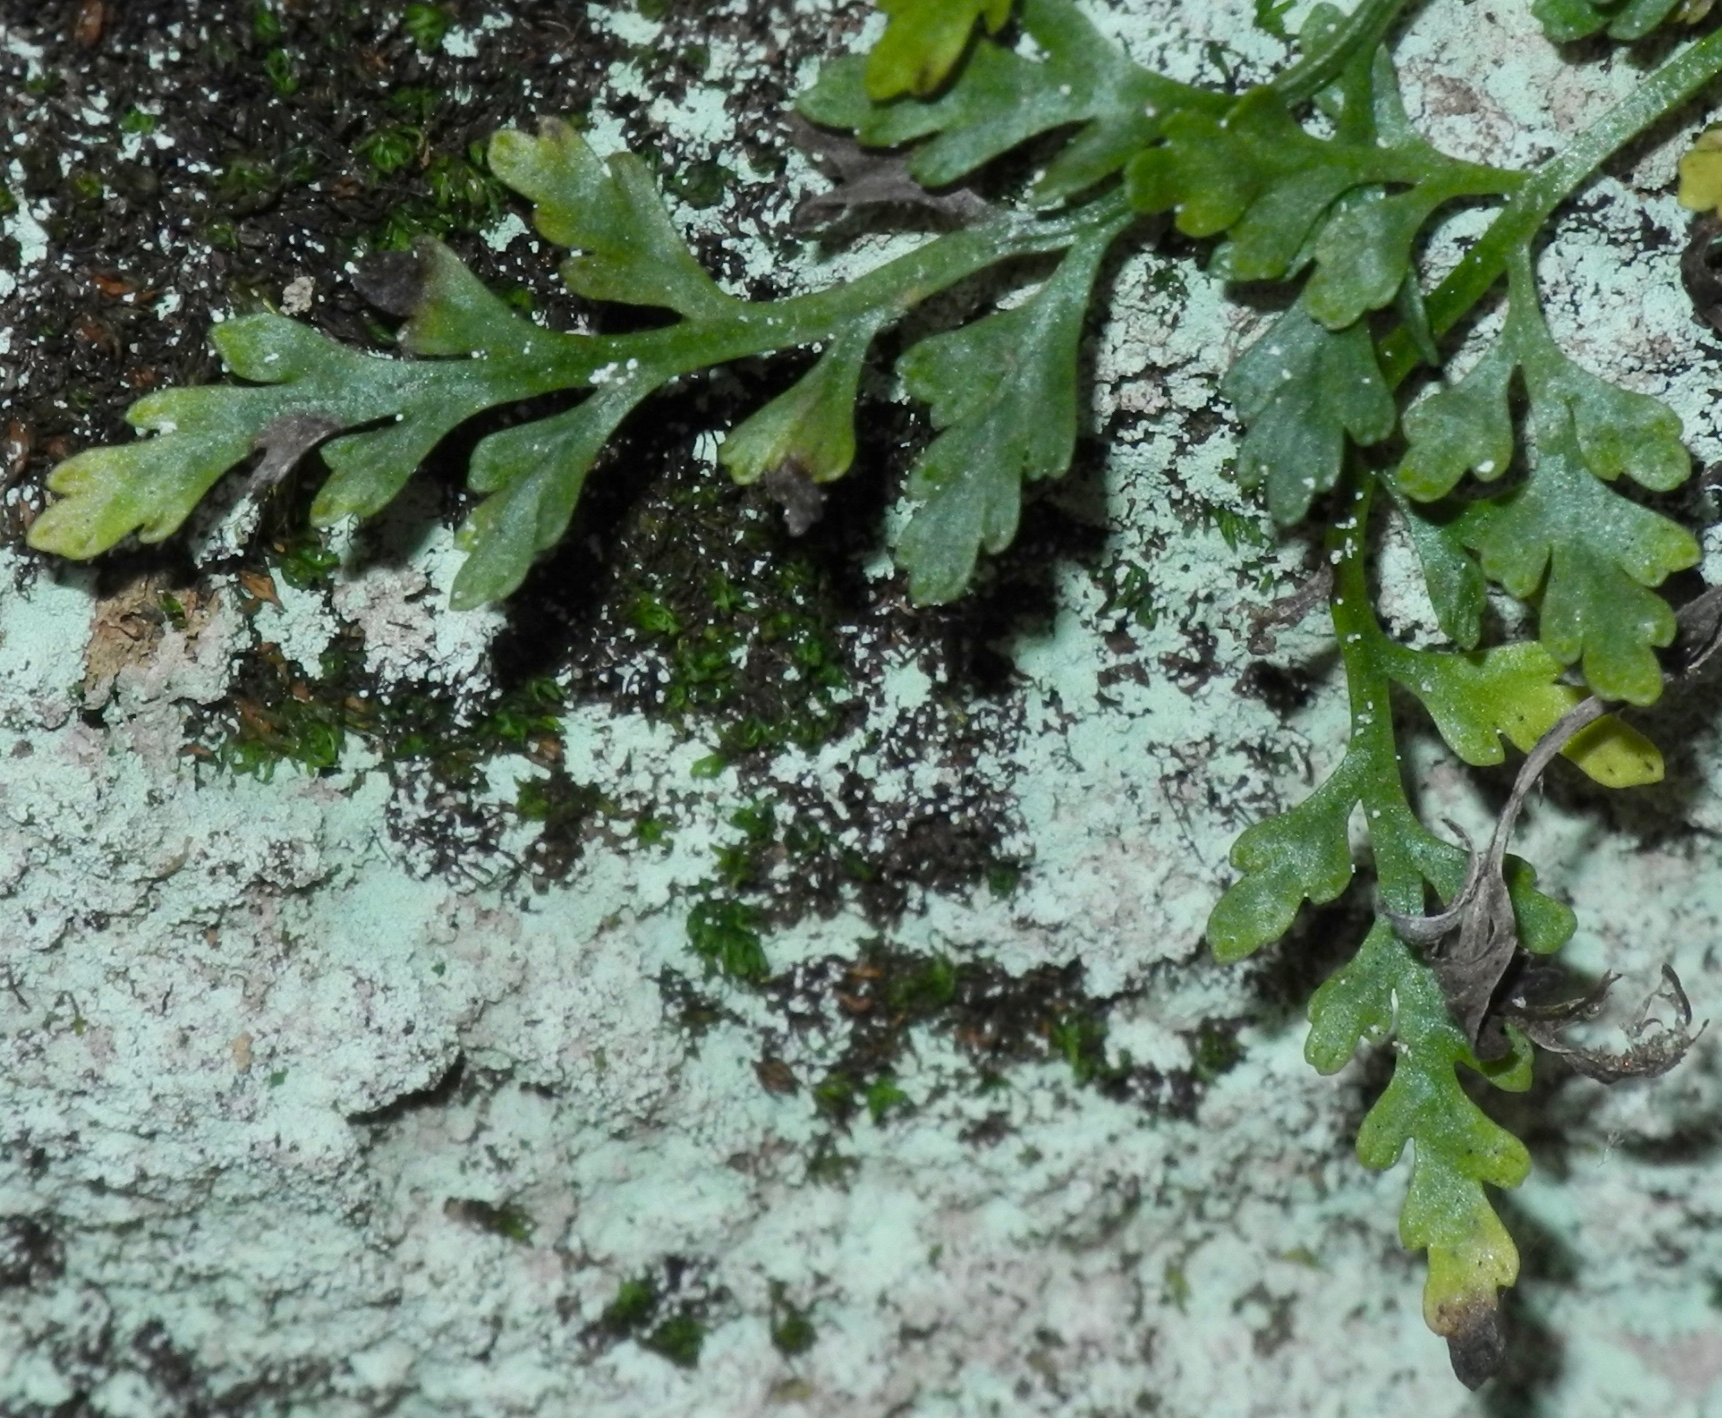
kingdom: Plantae
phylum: Tracheophyta
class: Polypodiopsida
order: Polypodiales
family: Aspleniaceae
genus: Asplenium
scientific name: Asplenium montanum
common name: Mountain spleenwort
